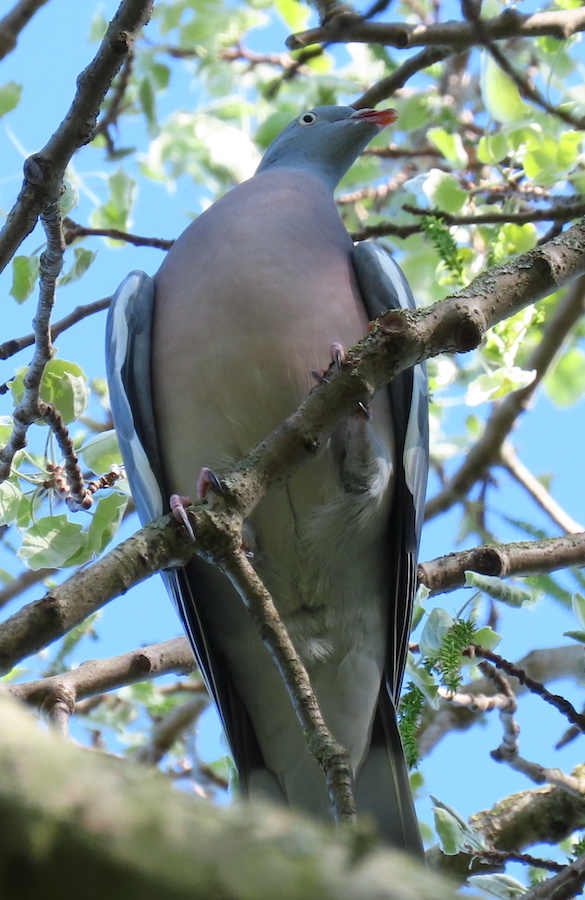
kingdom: Animalia
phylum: Chordata
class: Aves
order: Columbiformes
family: Columbidae
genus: Columba
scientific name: Columba palumbus
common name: Common wood pigeon
